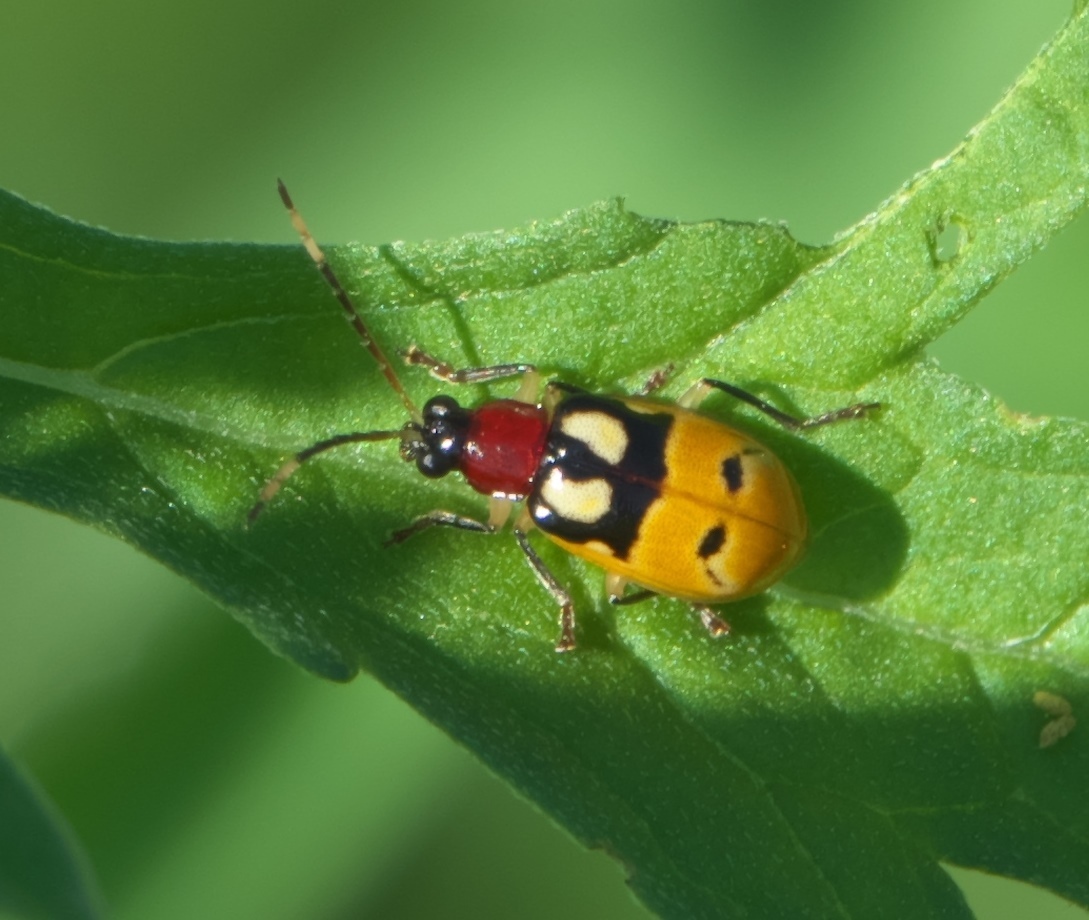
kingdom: Animalia
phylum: Arthropoda
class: Insecta
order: Coleoptera
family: Chrysomelidae
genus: Diabrotica
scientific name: Diabrotica adelpha
